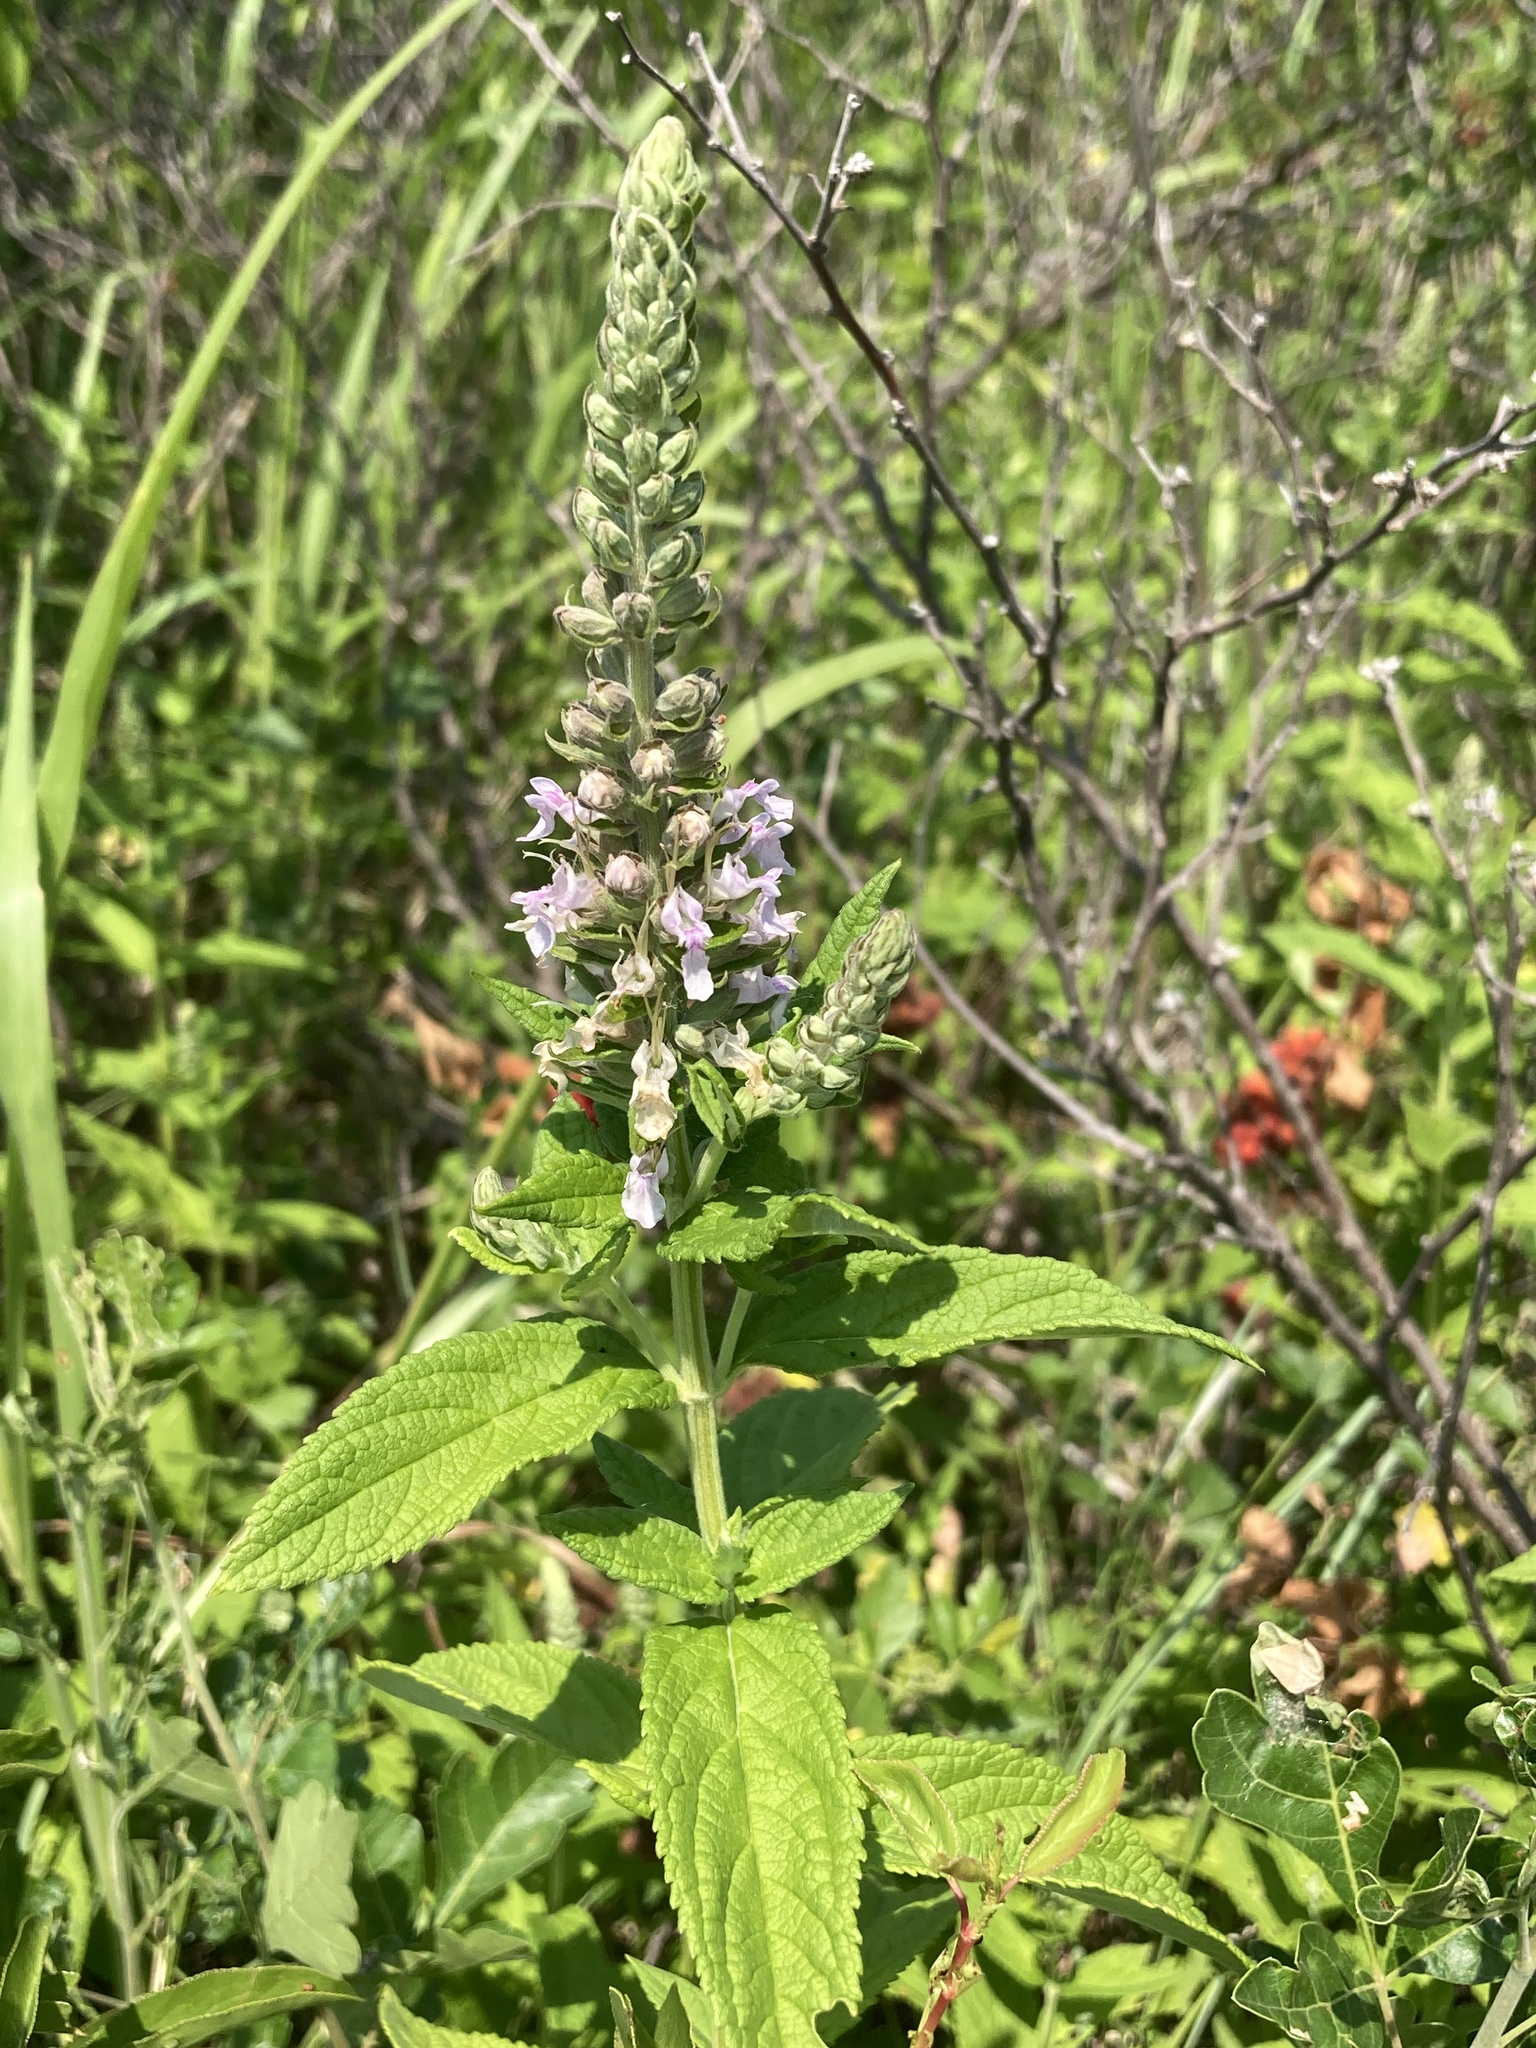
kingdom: Plantae
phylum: Tracheophyta
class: Magnoliopsida
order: Lamiales
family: Lamiaceae
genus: Teucrium
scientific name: Teucrium canadense
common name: American germander
